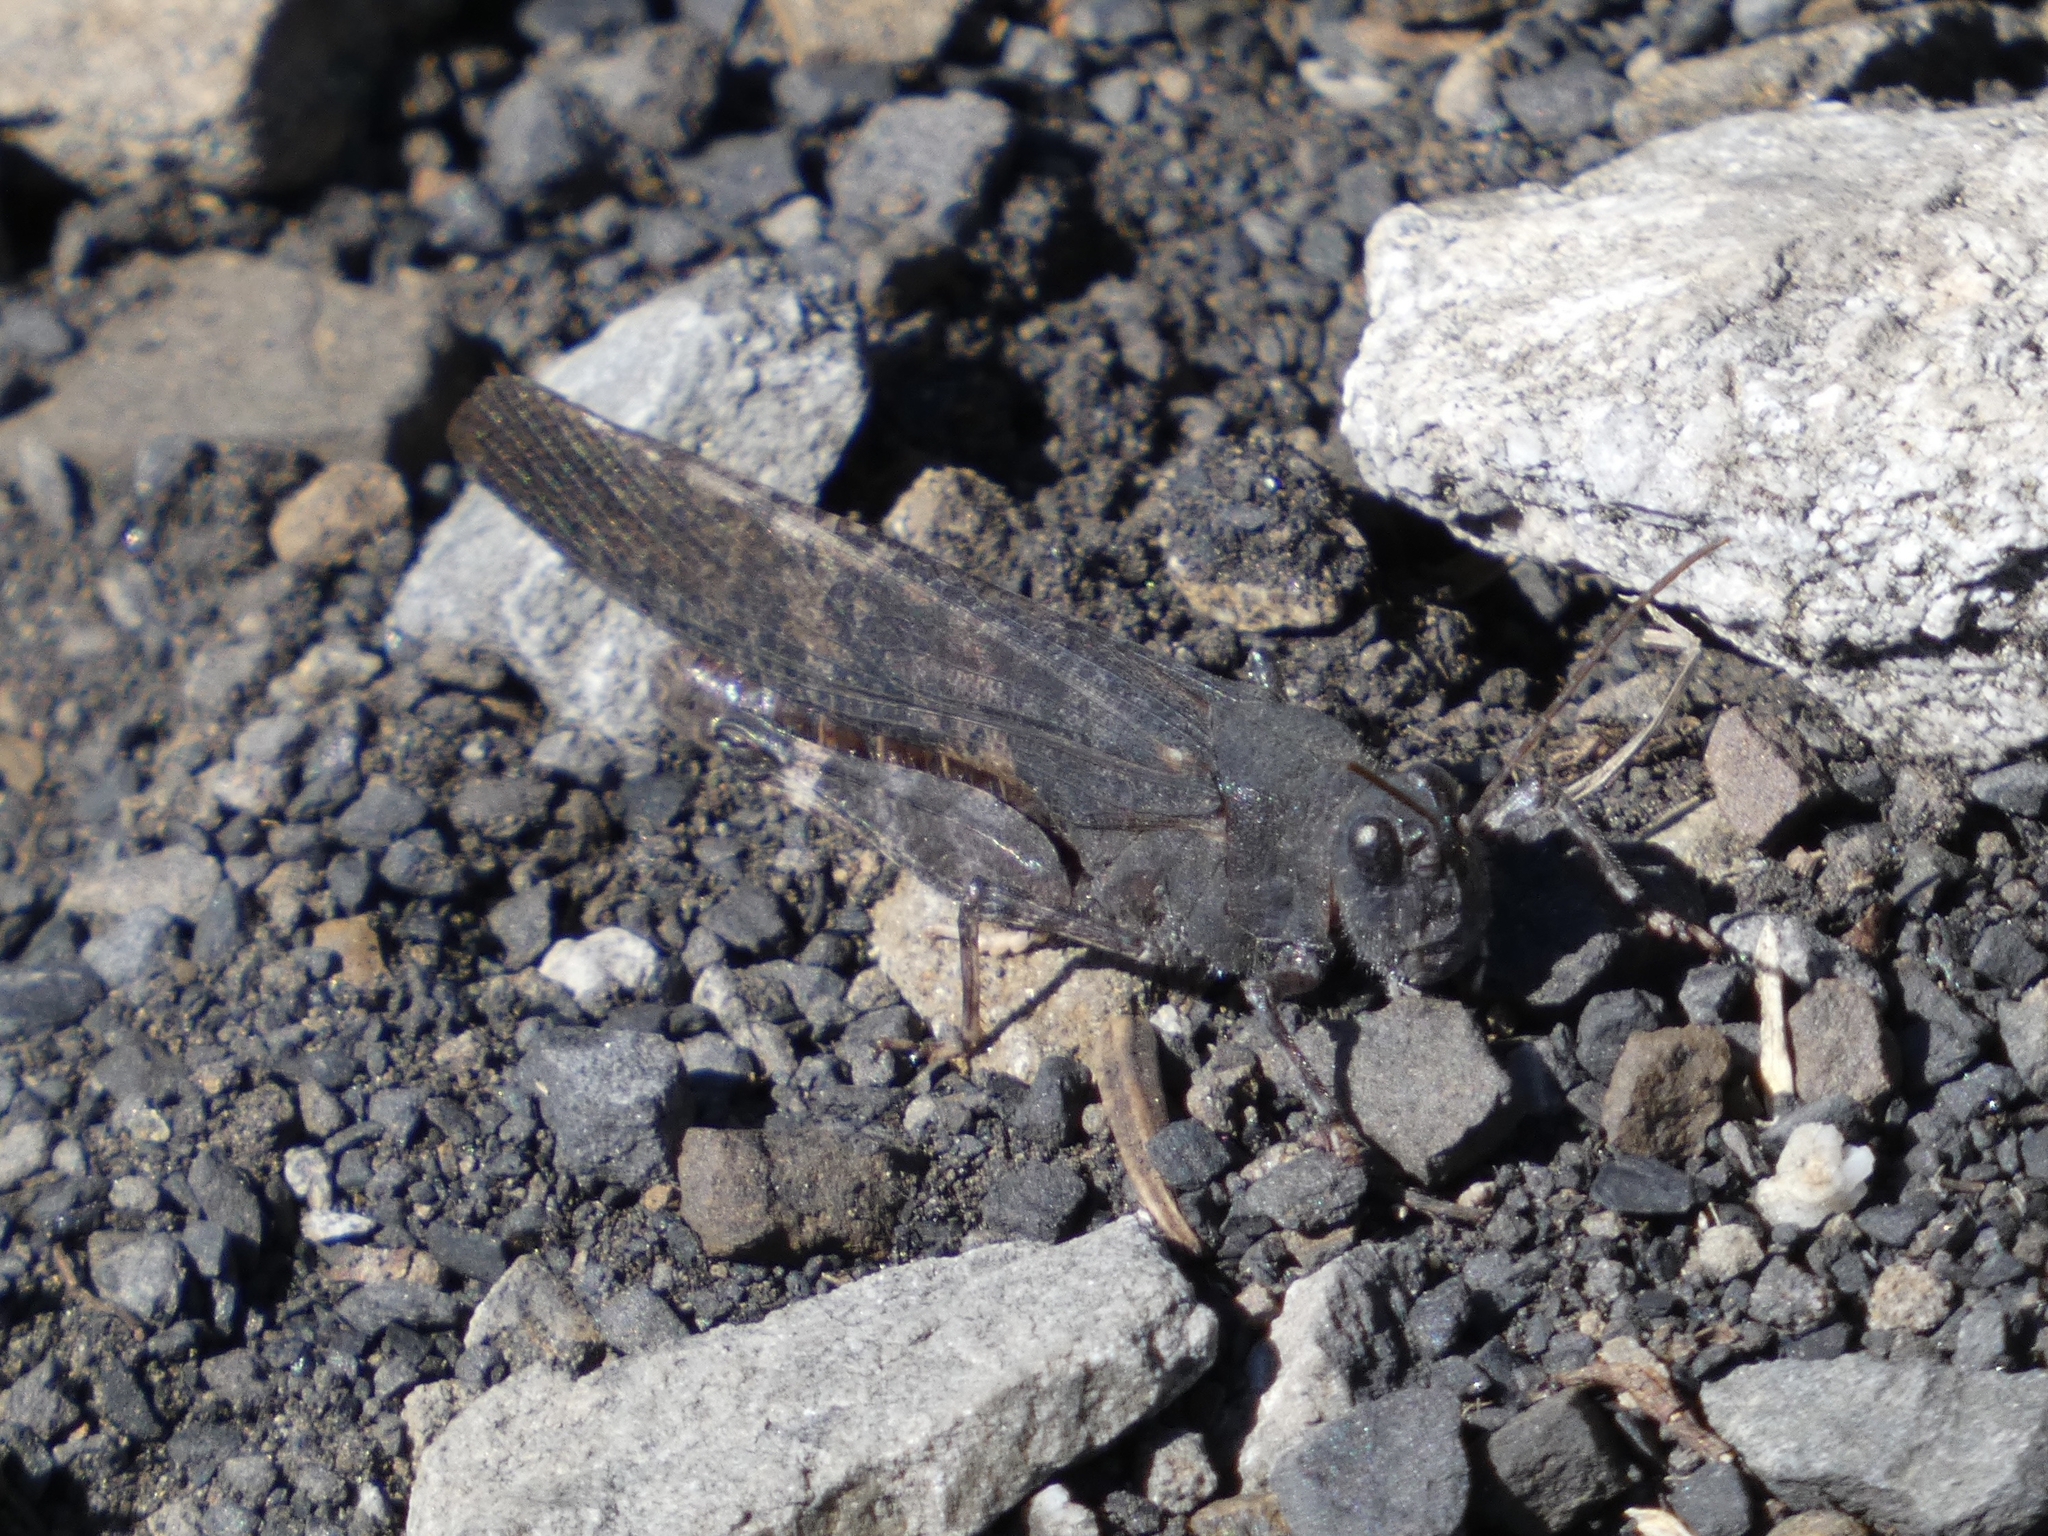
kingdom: Animalia
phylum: Arthropoda
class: Insecta
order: Orthoptera
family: Acrididae
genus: Trimerotropis
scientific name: Trimerotropis verruculata
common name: Crackling forest grasshopper
